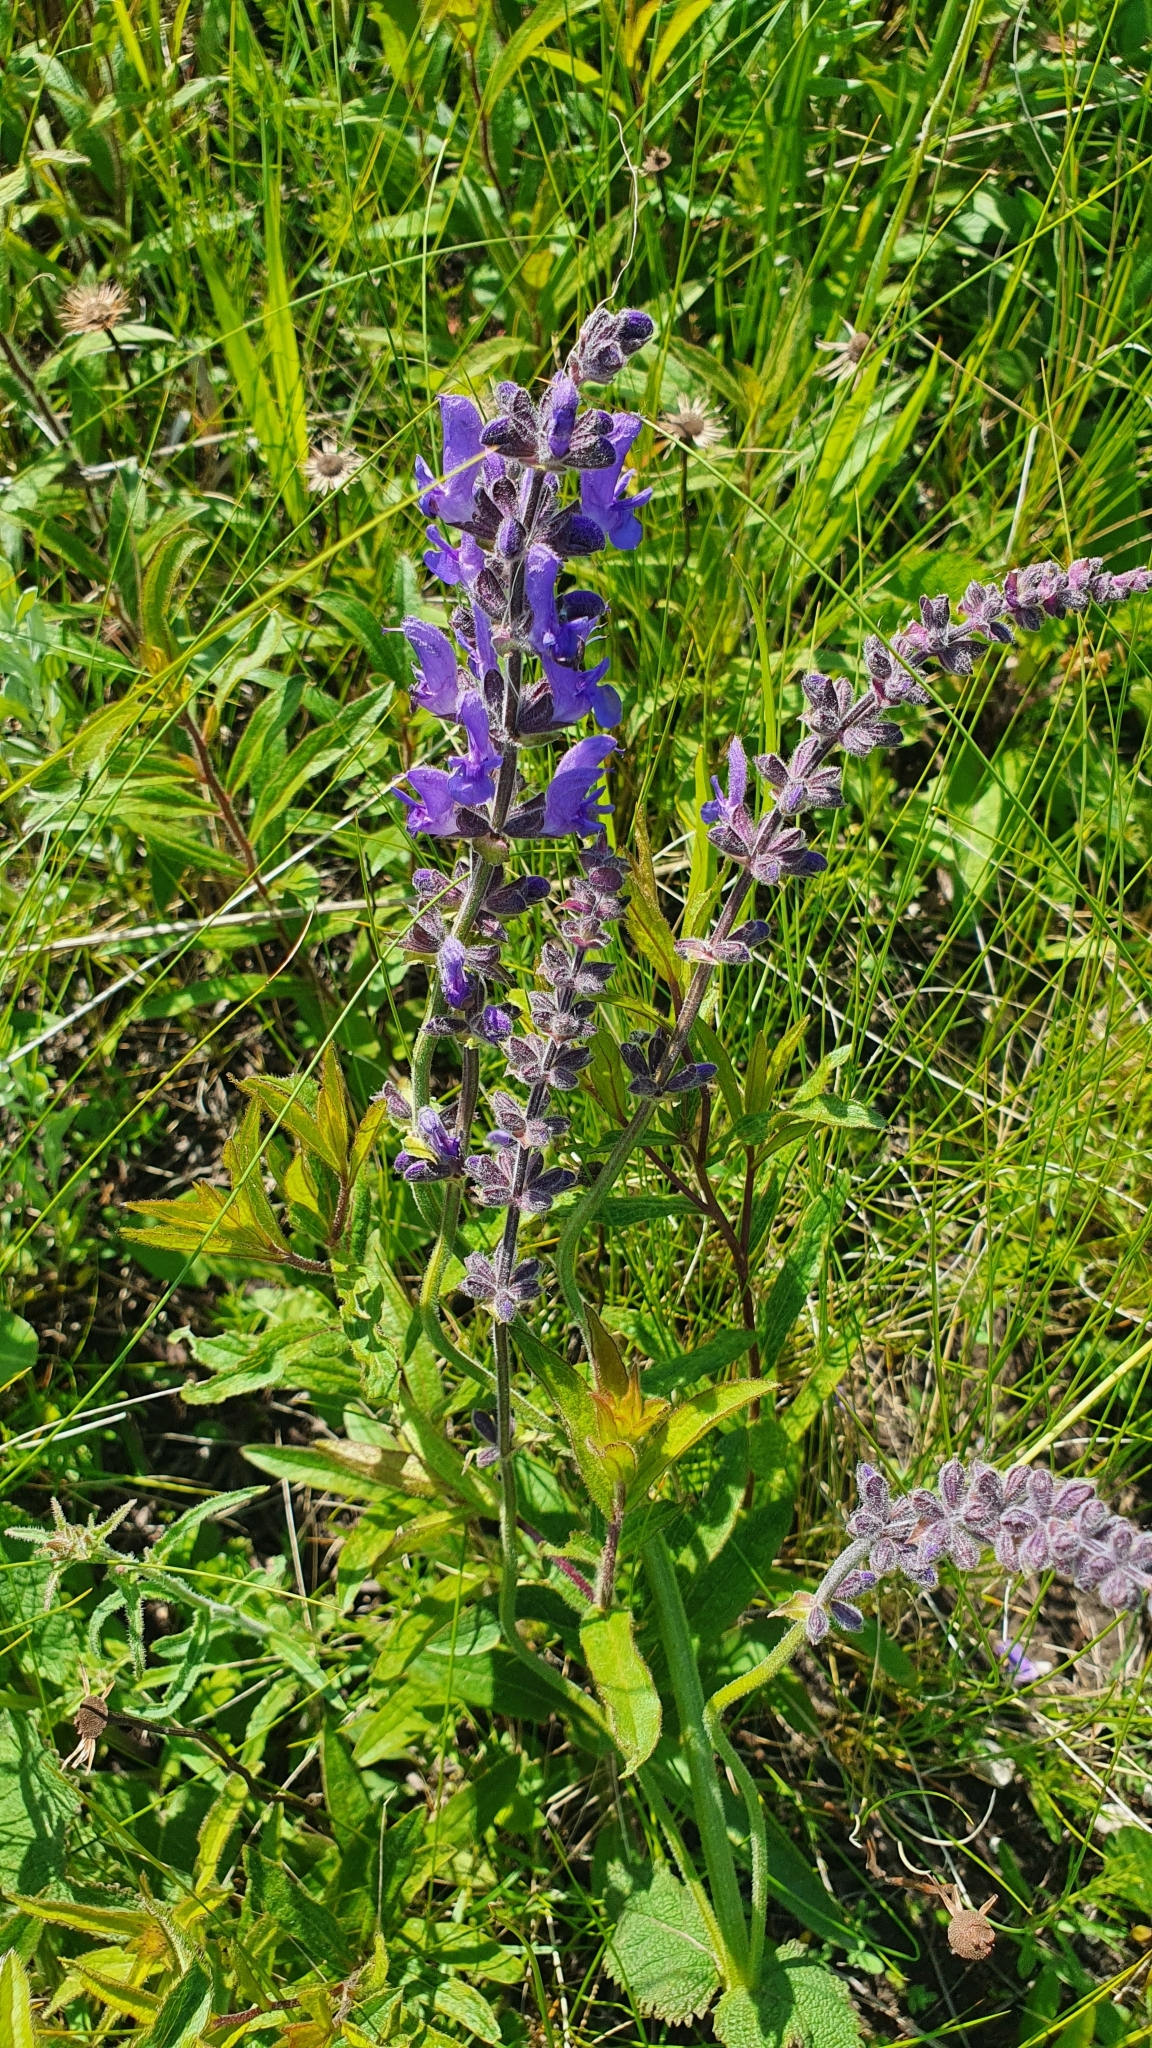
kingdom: Plantae
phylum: Tracheophyta
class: Magnoliopsida
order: Lamiales
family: Lamiaceae
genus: Salvia
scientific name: Salvia dumetorum
